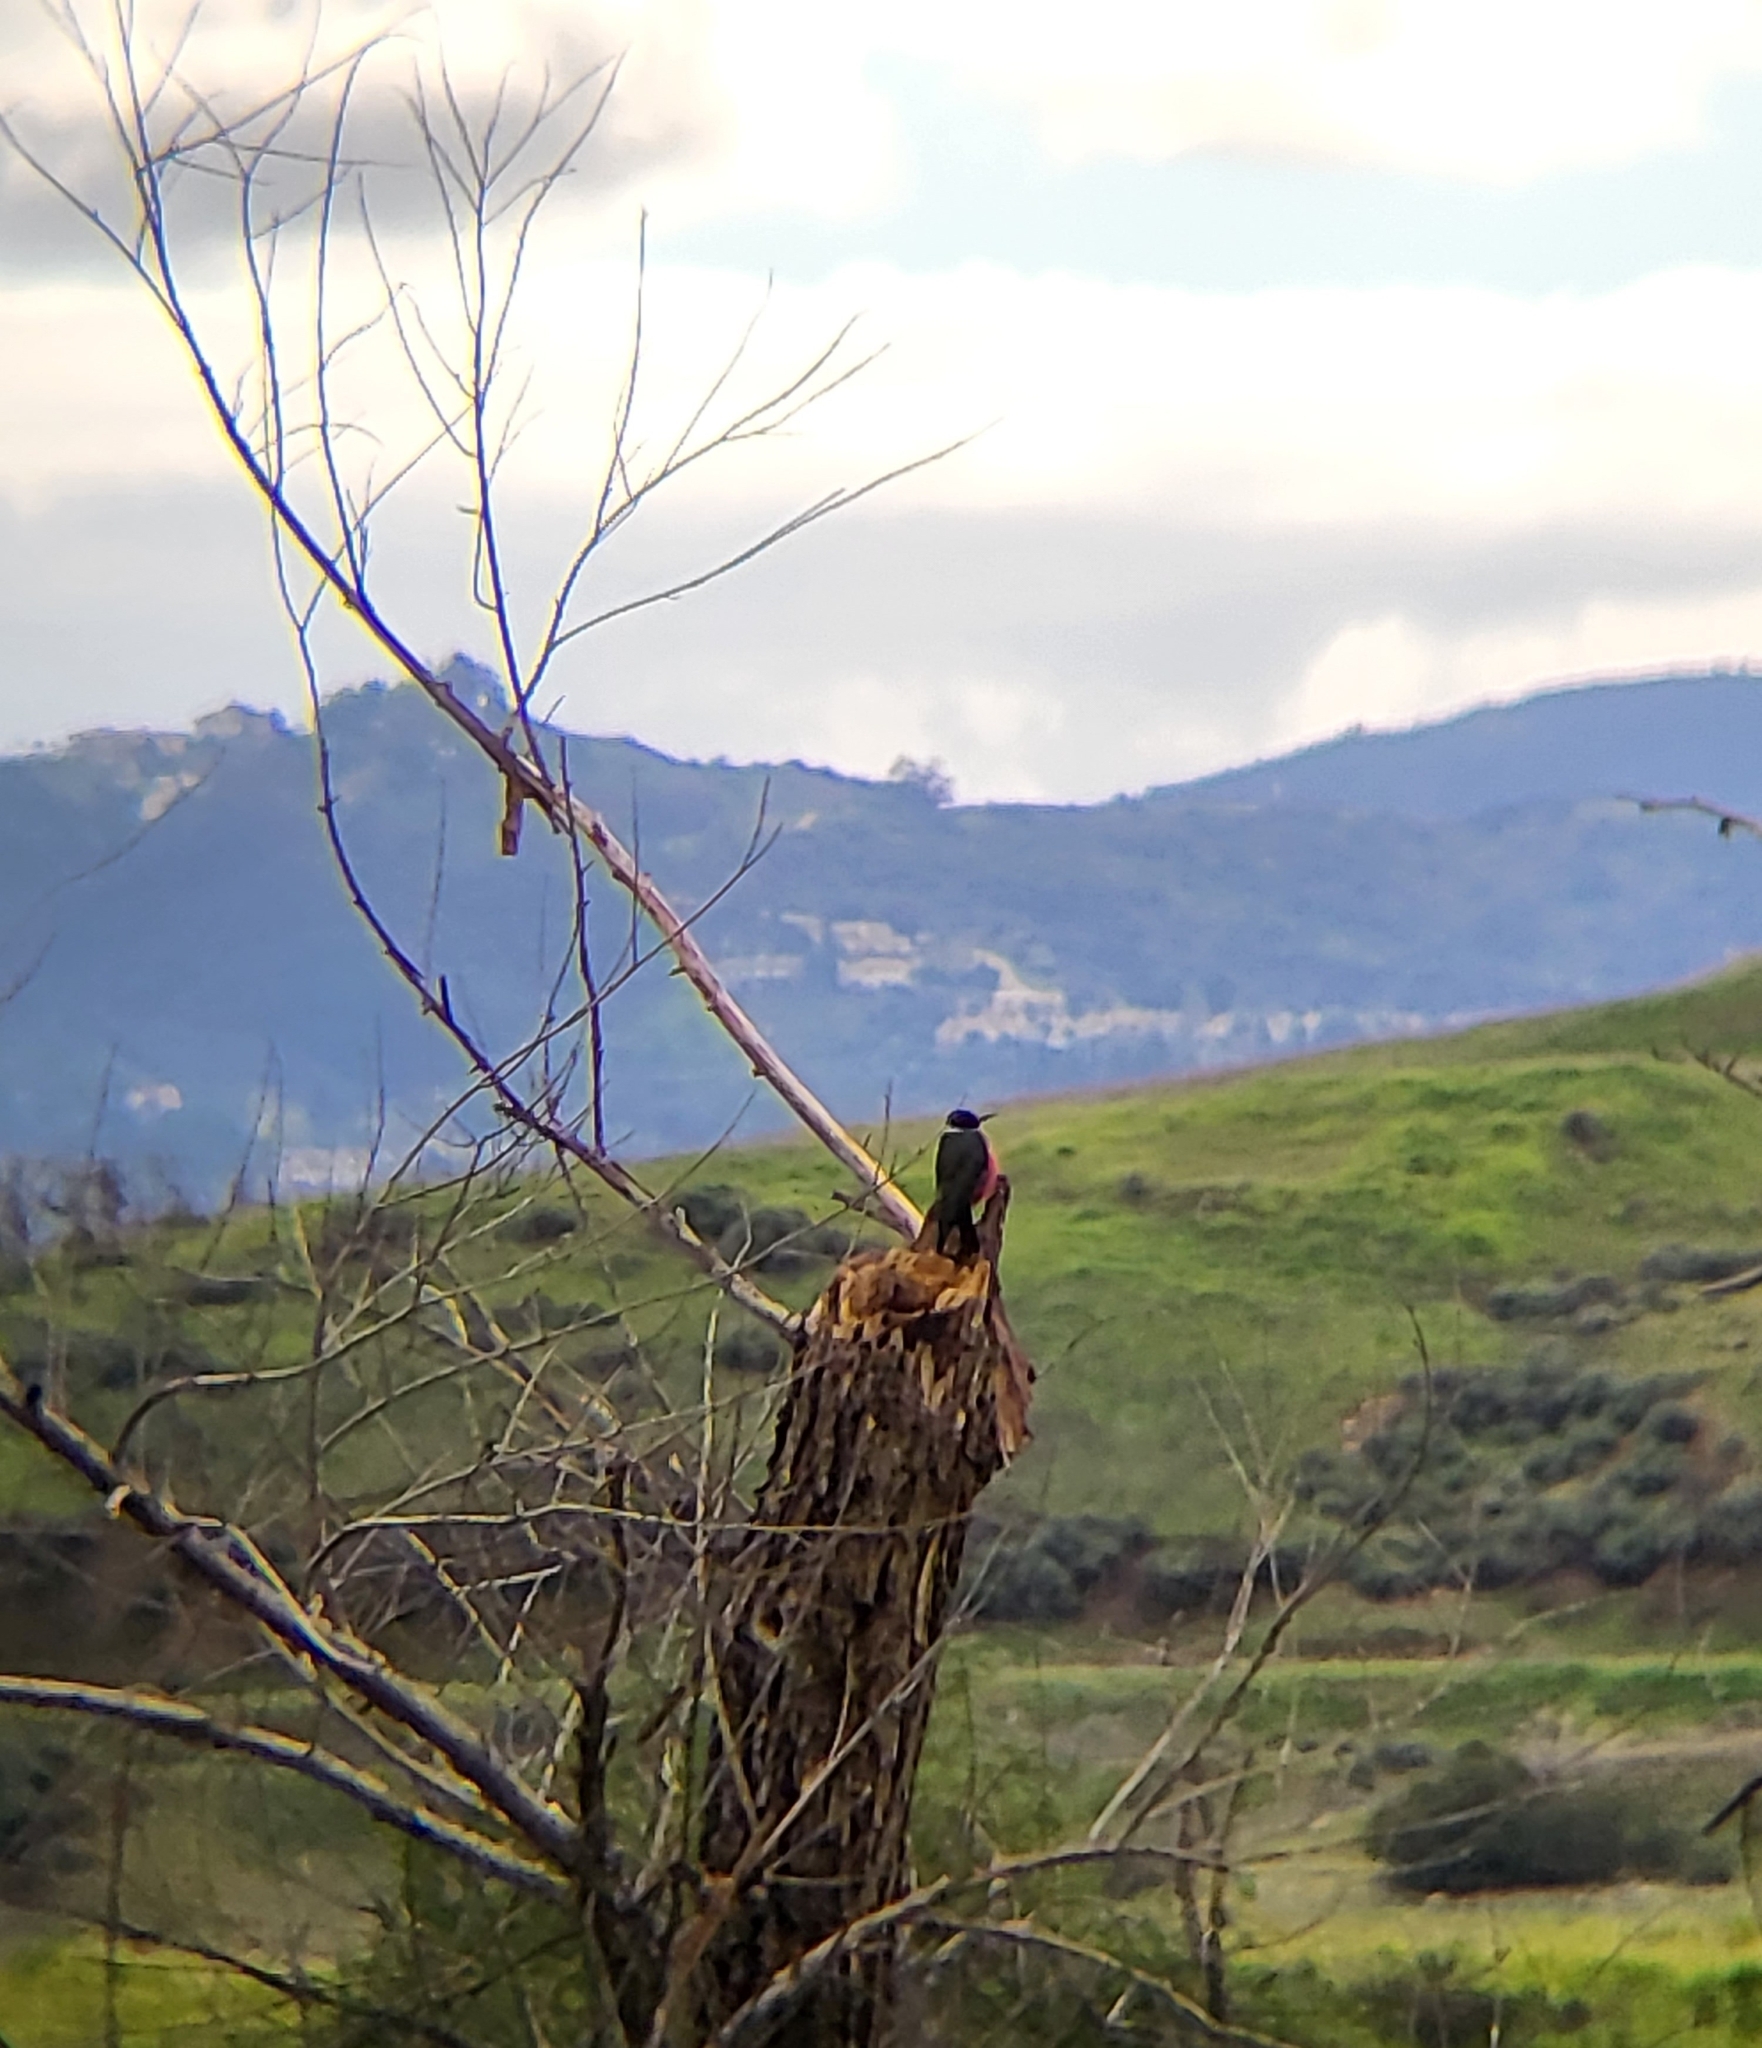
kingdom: Animalia
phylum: Chordata
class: Aves
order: Piciformes
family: Picidae
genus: Melanerpes
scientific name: Melanerpes lewis
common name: Lewis's woodpecker
